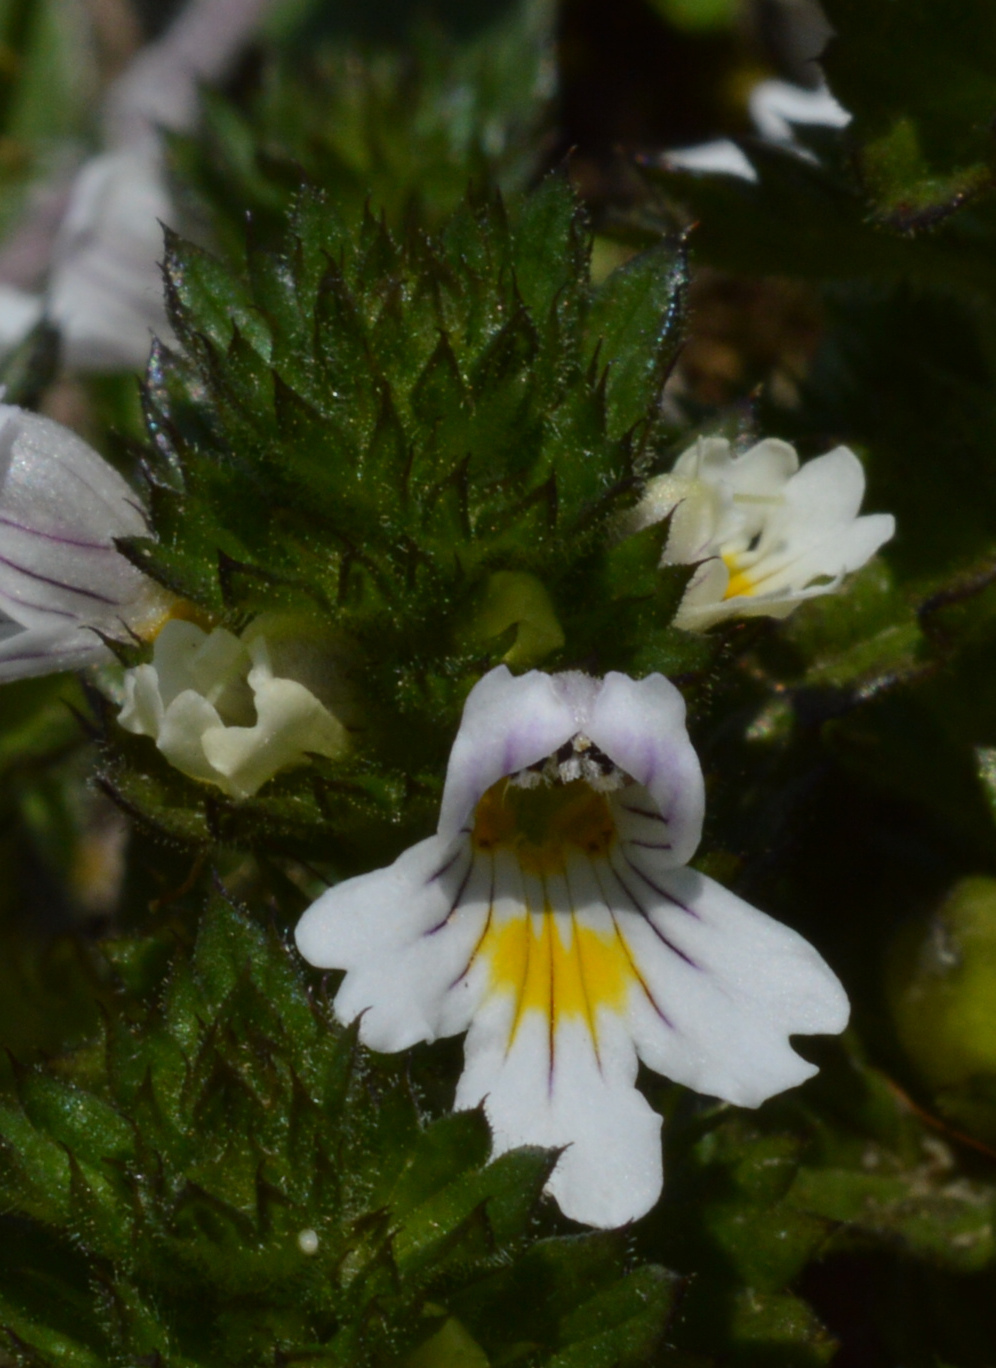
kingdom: Plantae
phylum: Tracheophyta
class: Magnoliopsida
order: Lamiales
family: Orobanchaceae
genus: Euphrasia
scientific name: Euphrasia officinalis
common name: Eyebright
